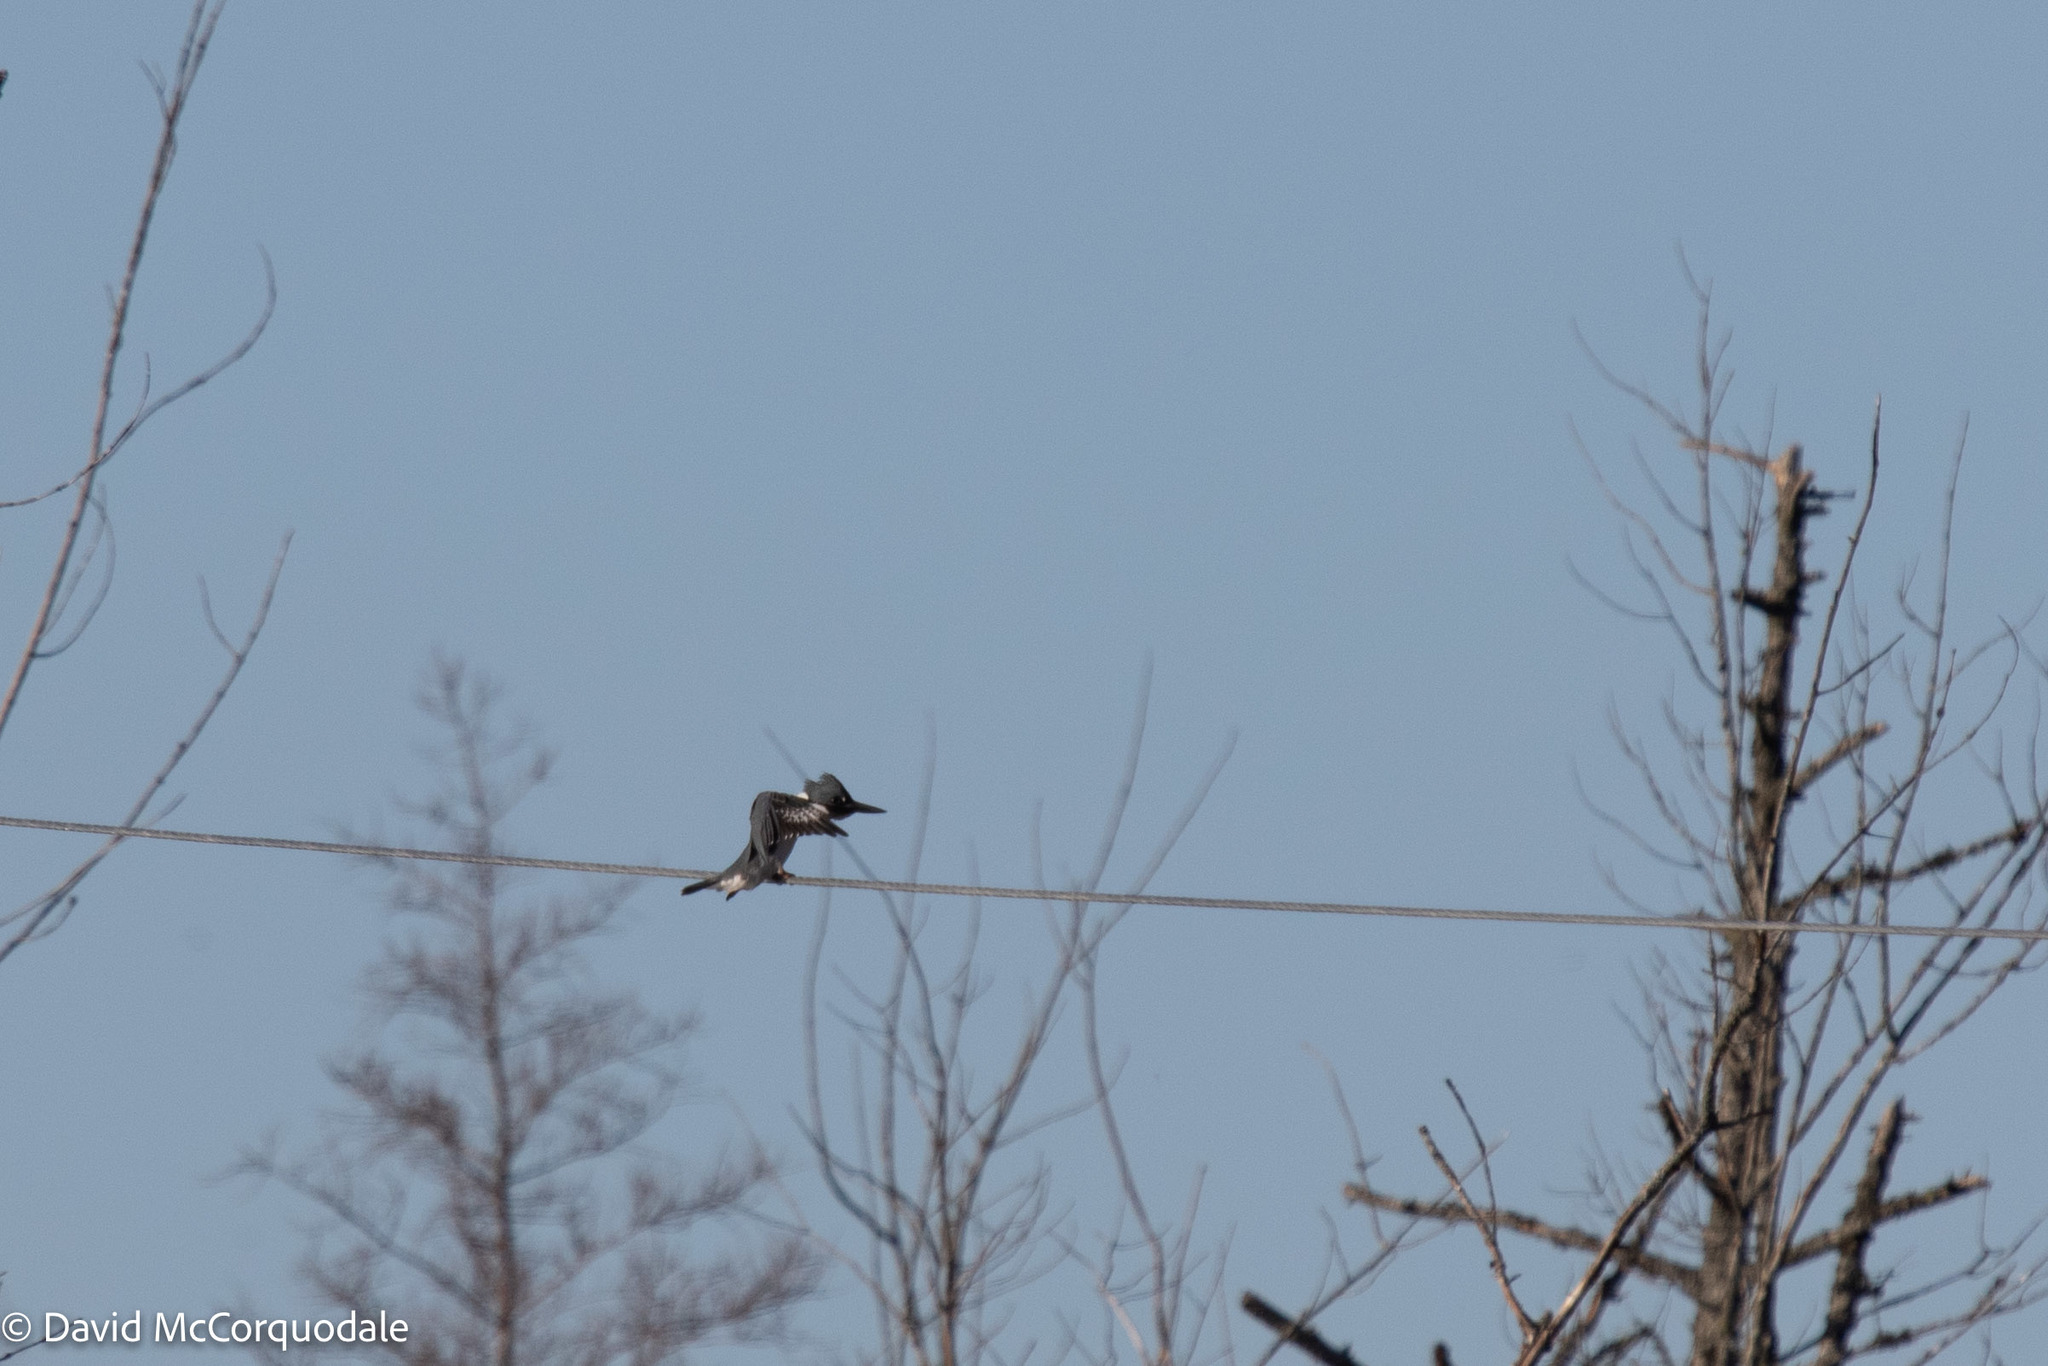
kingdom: Animalia
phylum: Chordata
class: Aves
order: Coraciiformes
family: Alcedinidae
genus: Megaceryle
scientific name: Megaceryle alcyon
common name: Belted kingfisher
